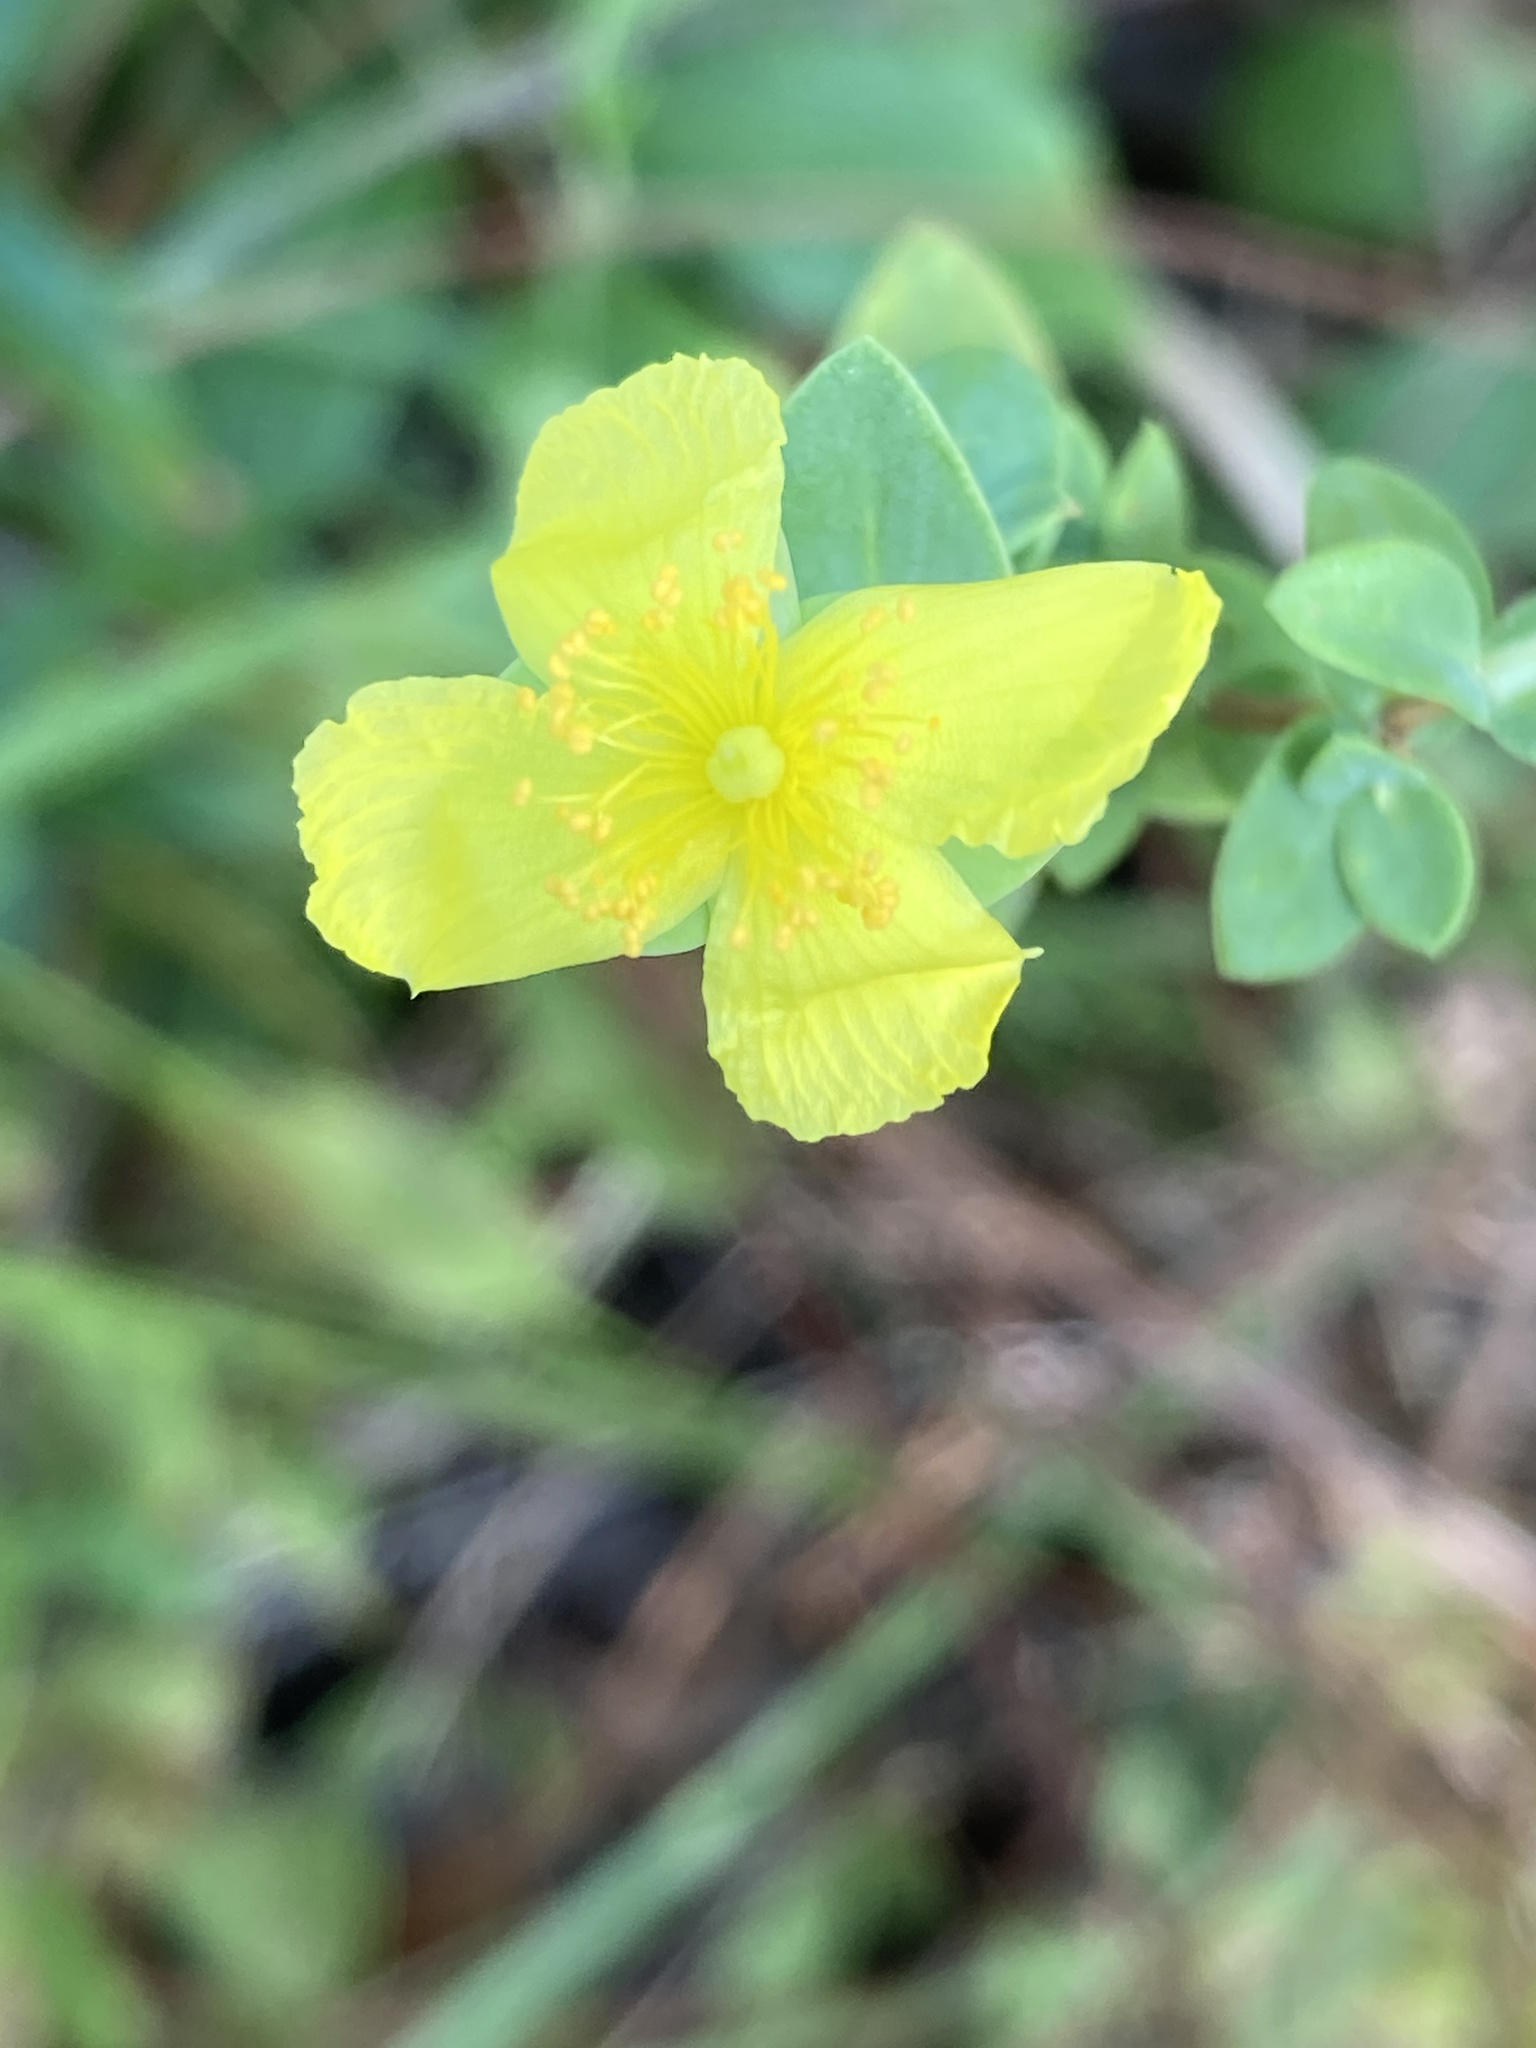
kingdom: Plantae
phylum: Tracheophyta
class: Magnoliopsida
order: Malpighiales
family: Hypericaceae
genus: Hypericum
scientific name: Hypericum tetrapetalum
